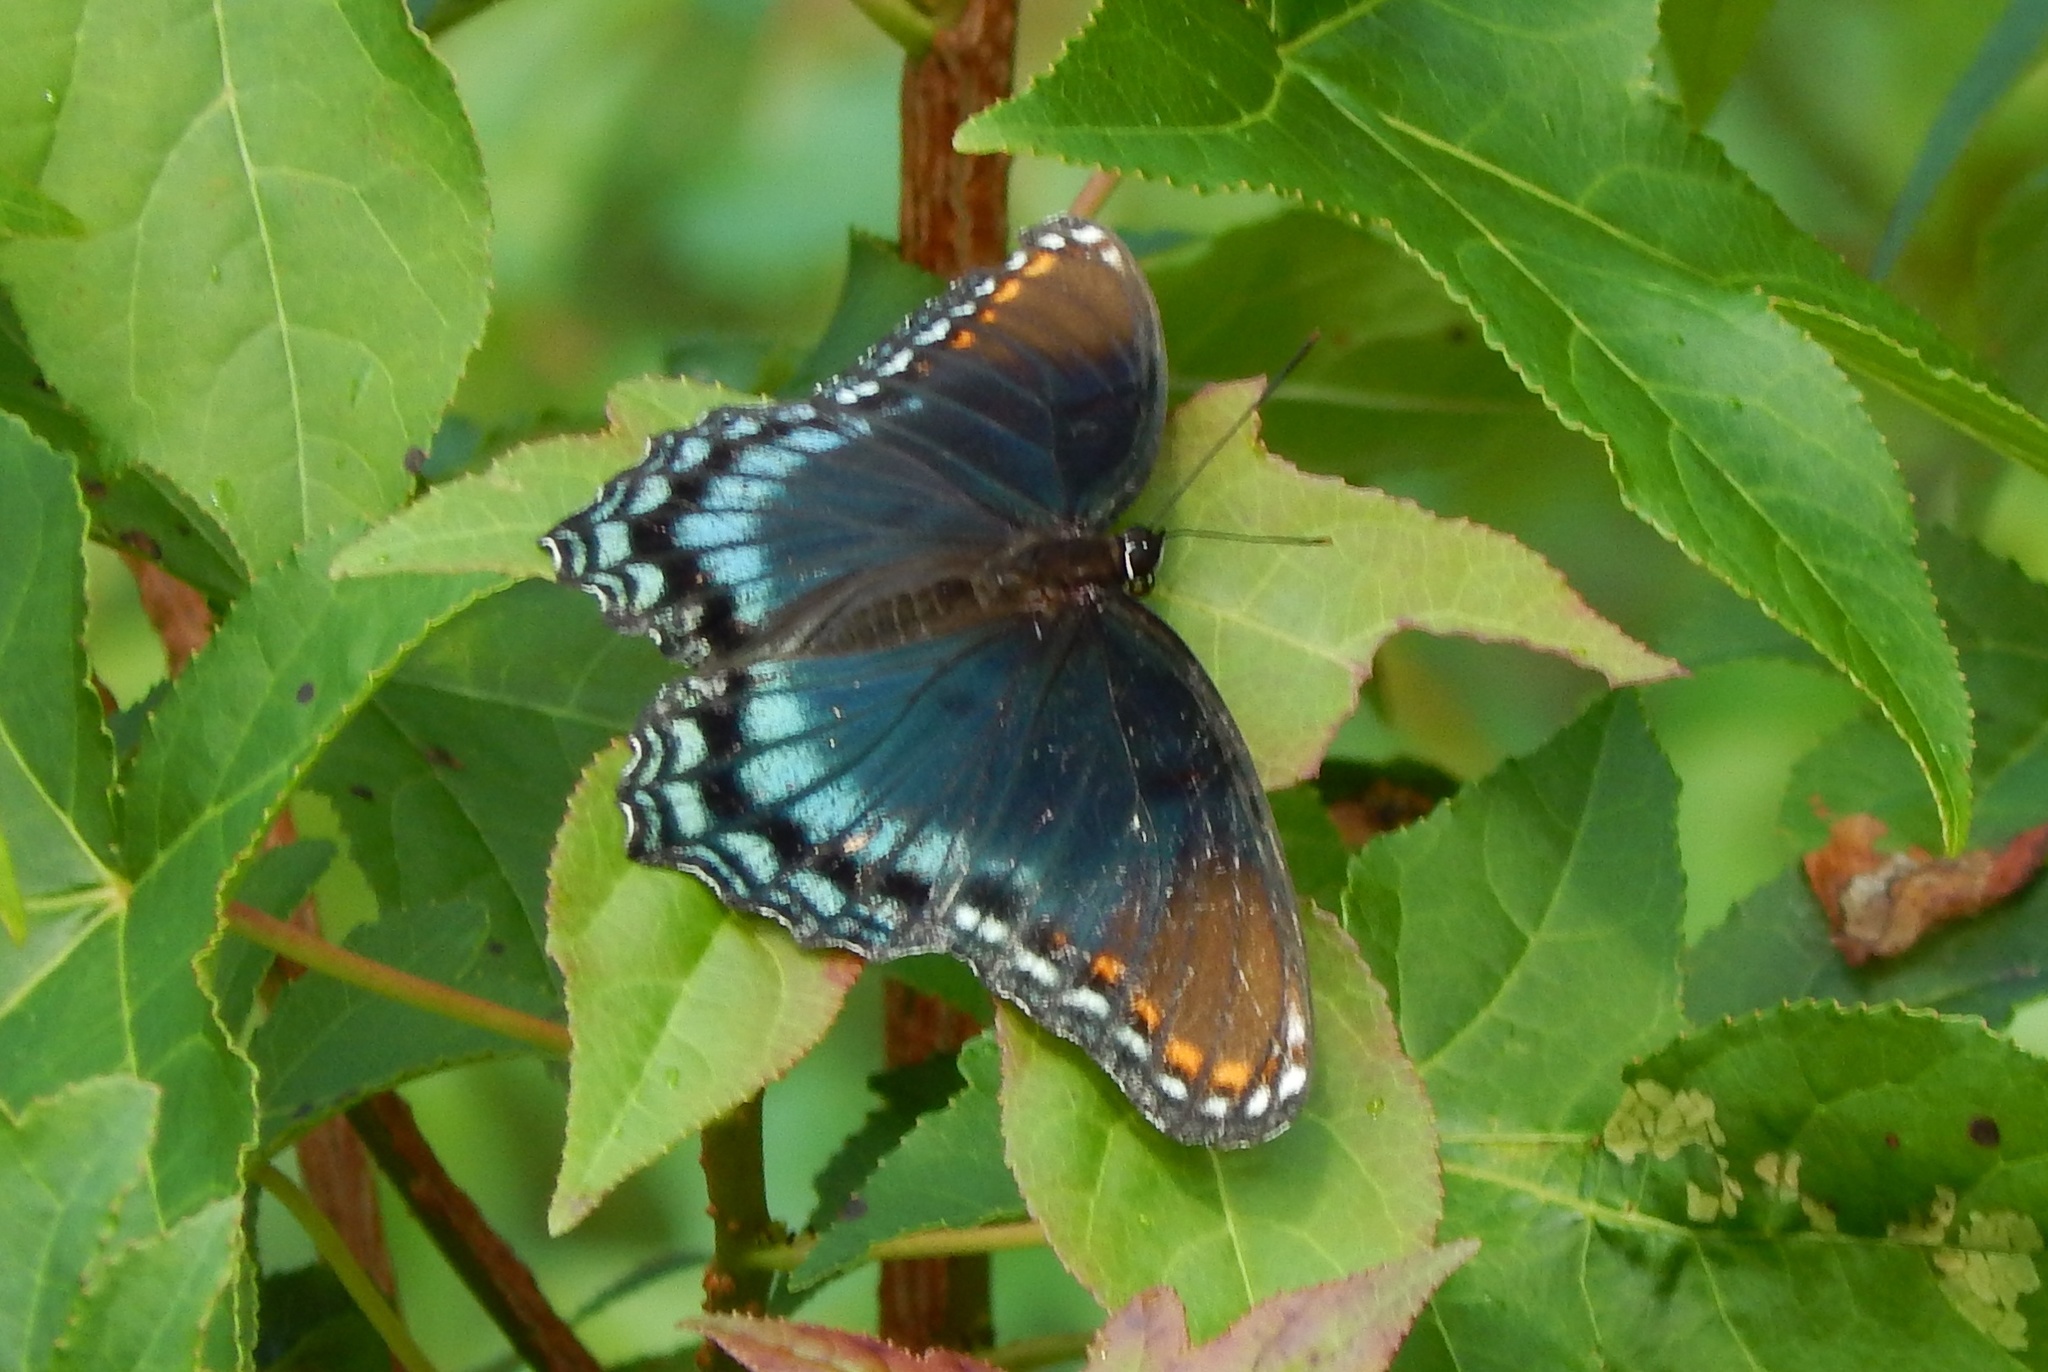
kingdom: Animalia
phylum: Arthropoda
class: Insecta
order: Lepidoptera
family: Nymphalidae
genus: Limenitis
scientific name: Limenitis arthemis
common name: Red-spotted admiral
